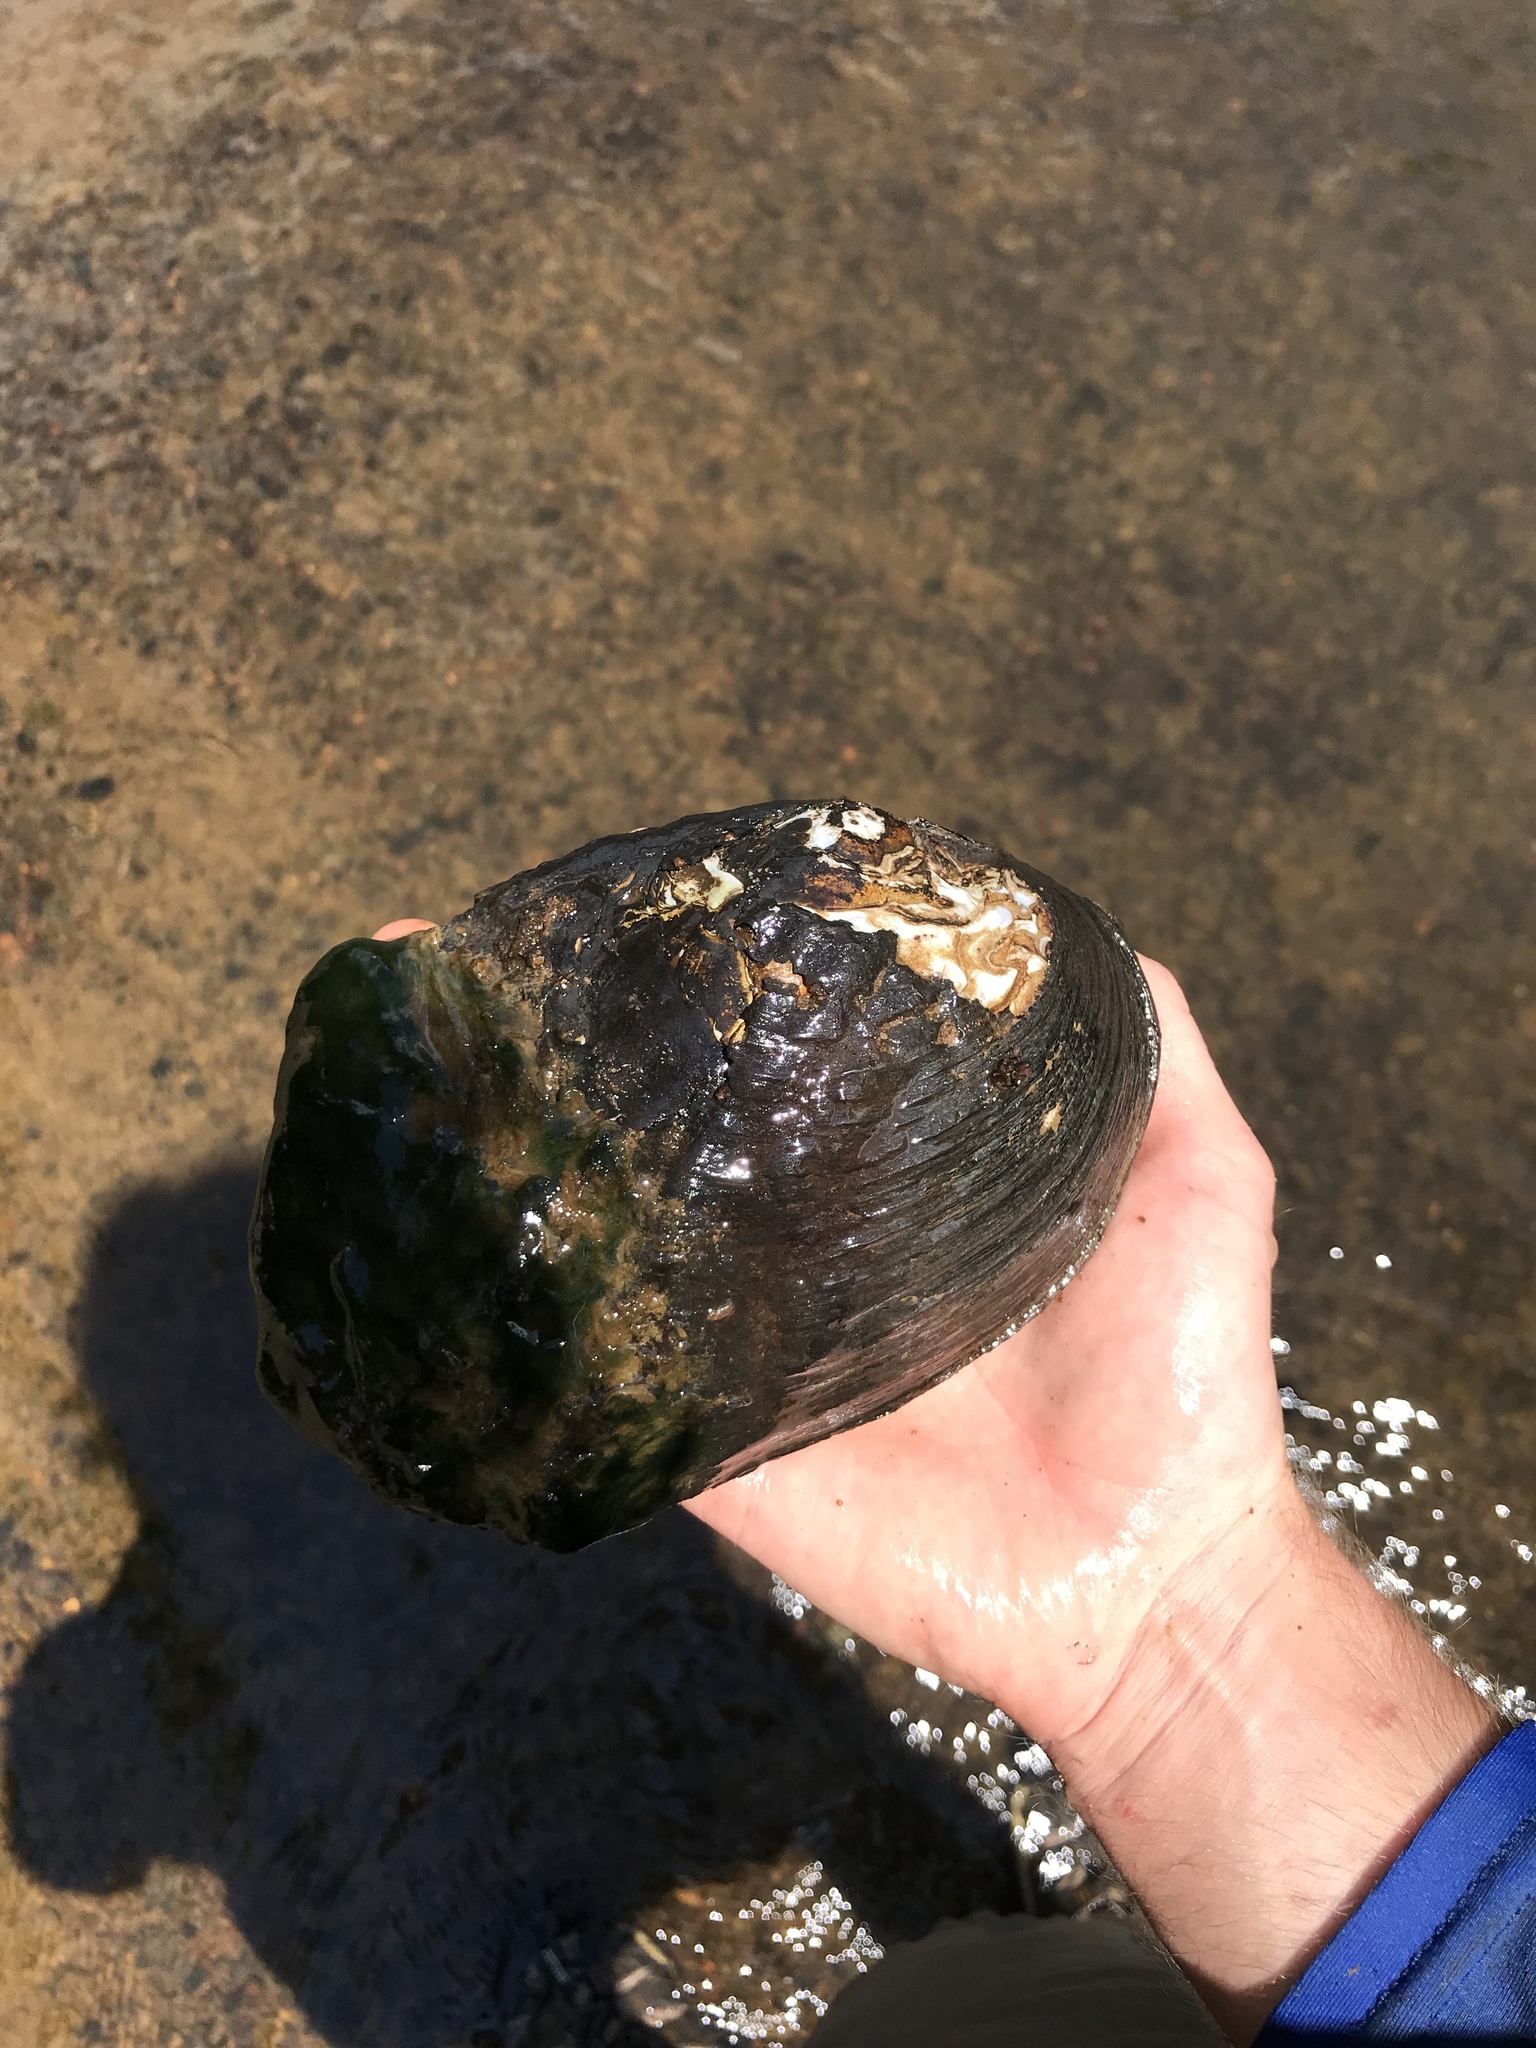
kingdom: Animalia
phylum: Mollusca
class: Bivalvia
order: Unionida
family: Unionidae
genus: Megalonaias
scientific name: Megalonaias nervosa
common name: Washboard
